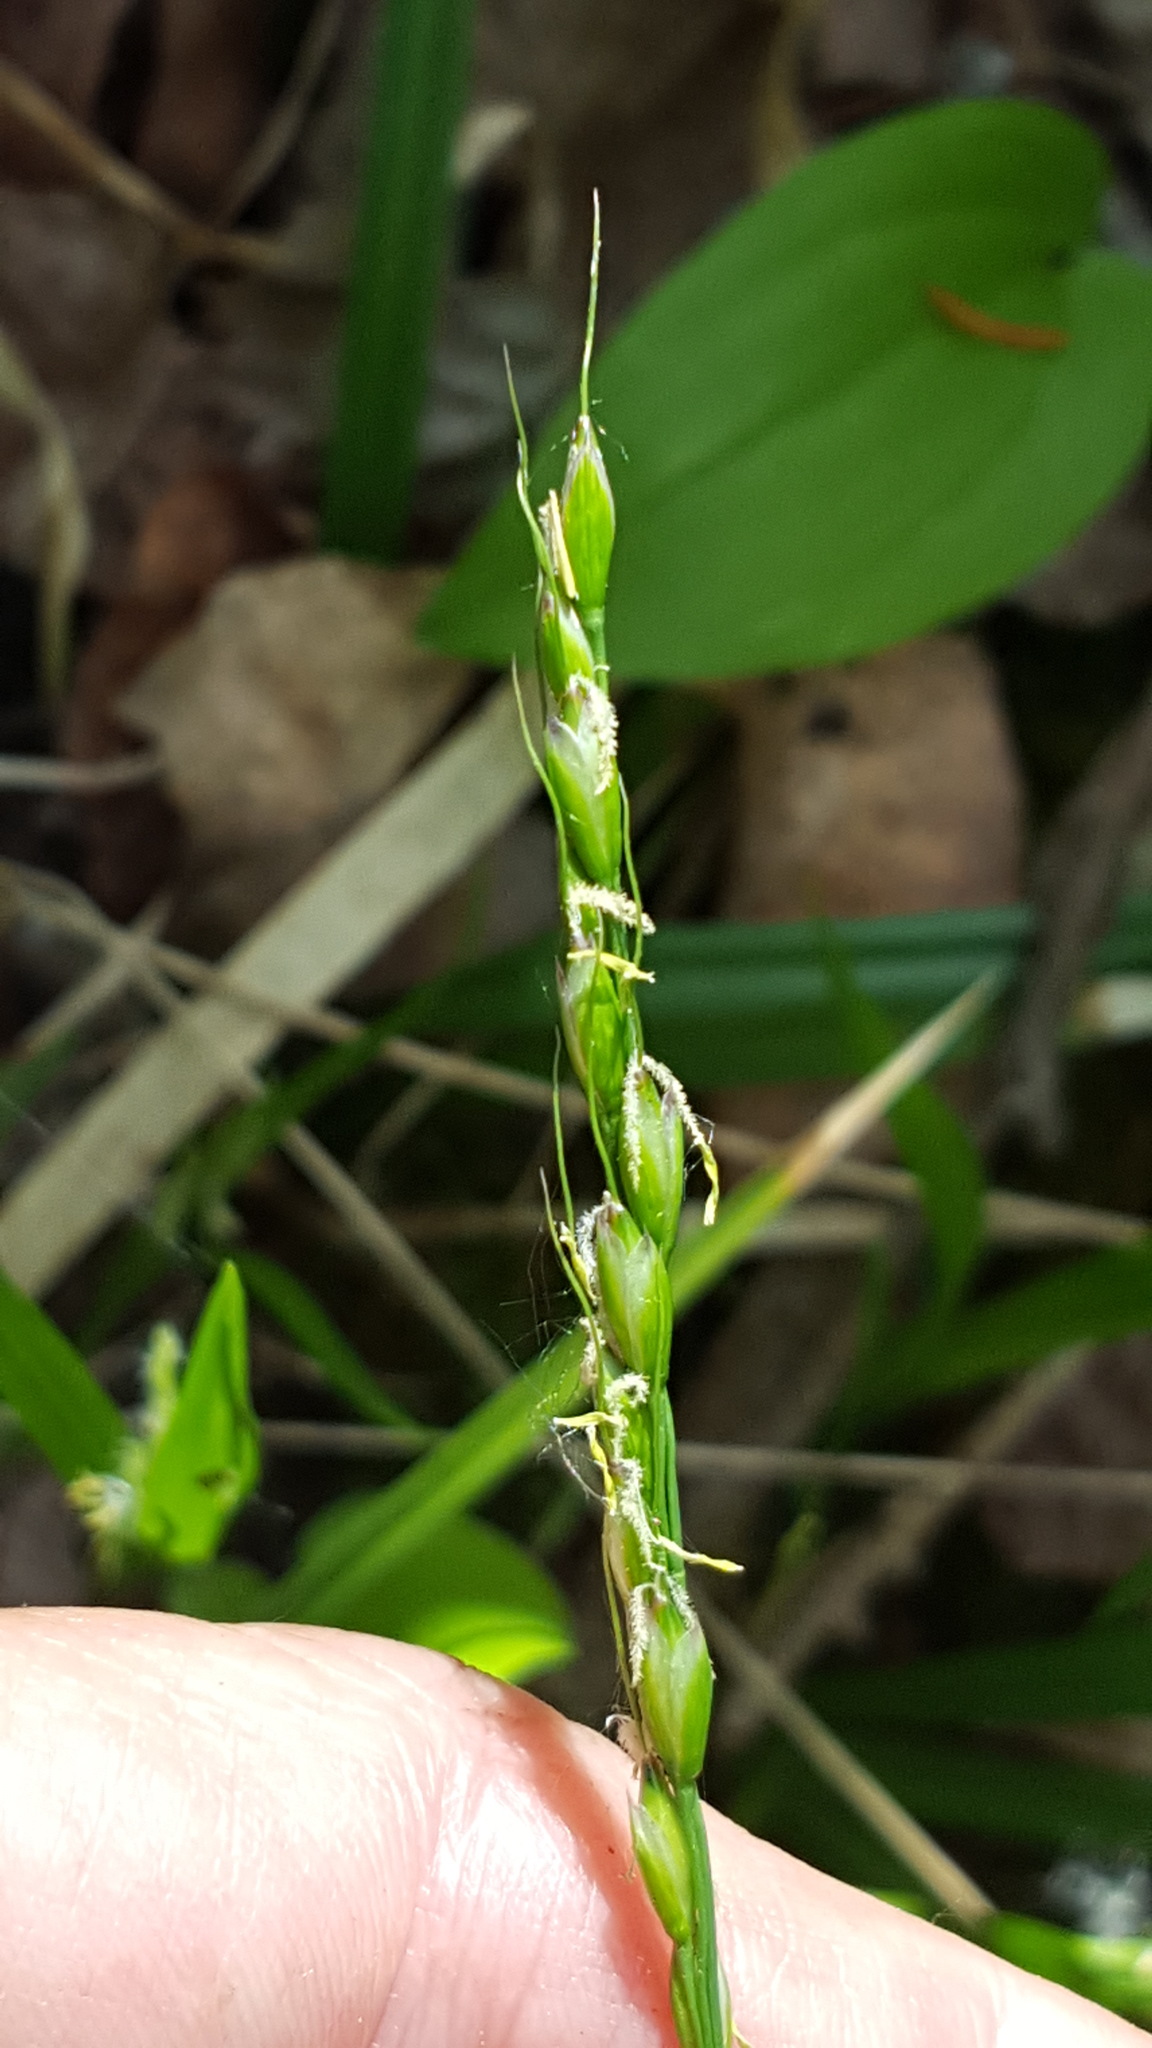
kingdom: Plantae
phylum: Tracheophyta
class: Liliopsida
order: Poales
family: Poaceae
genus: Oryzopsis
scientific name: Oryzopsis asperifolia
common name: Rough-leaved mountain rice
